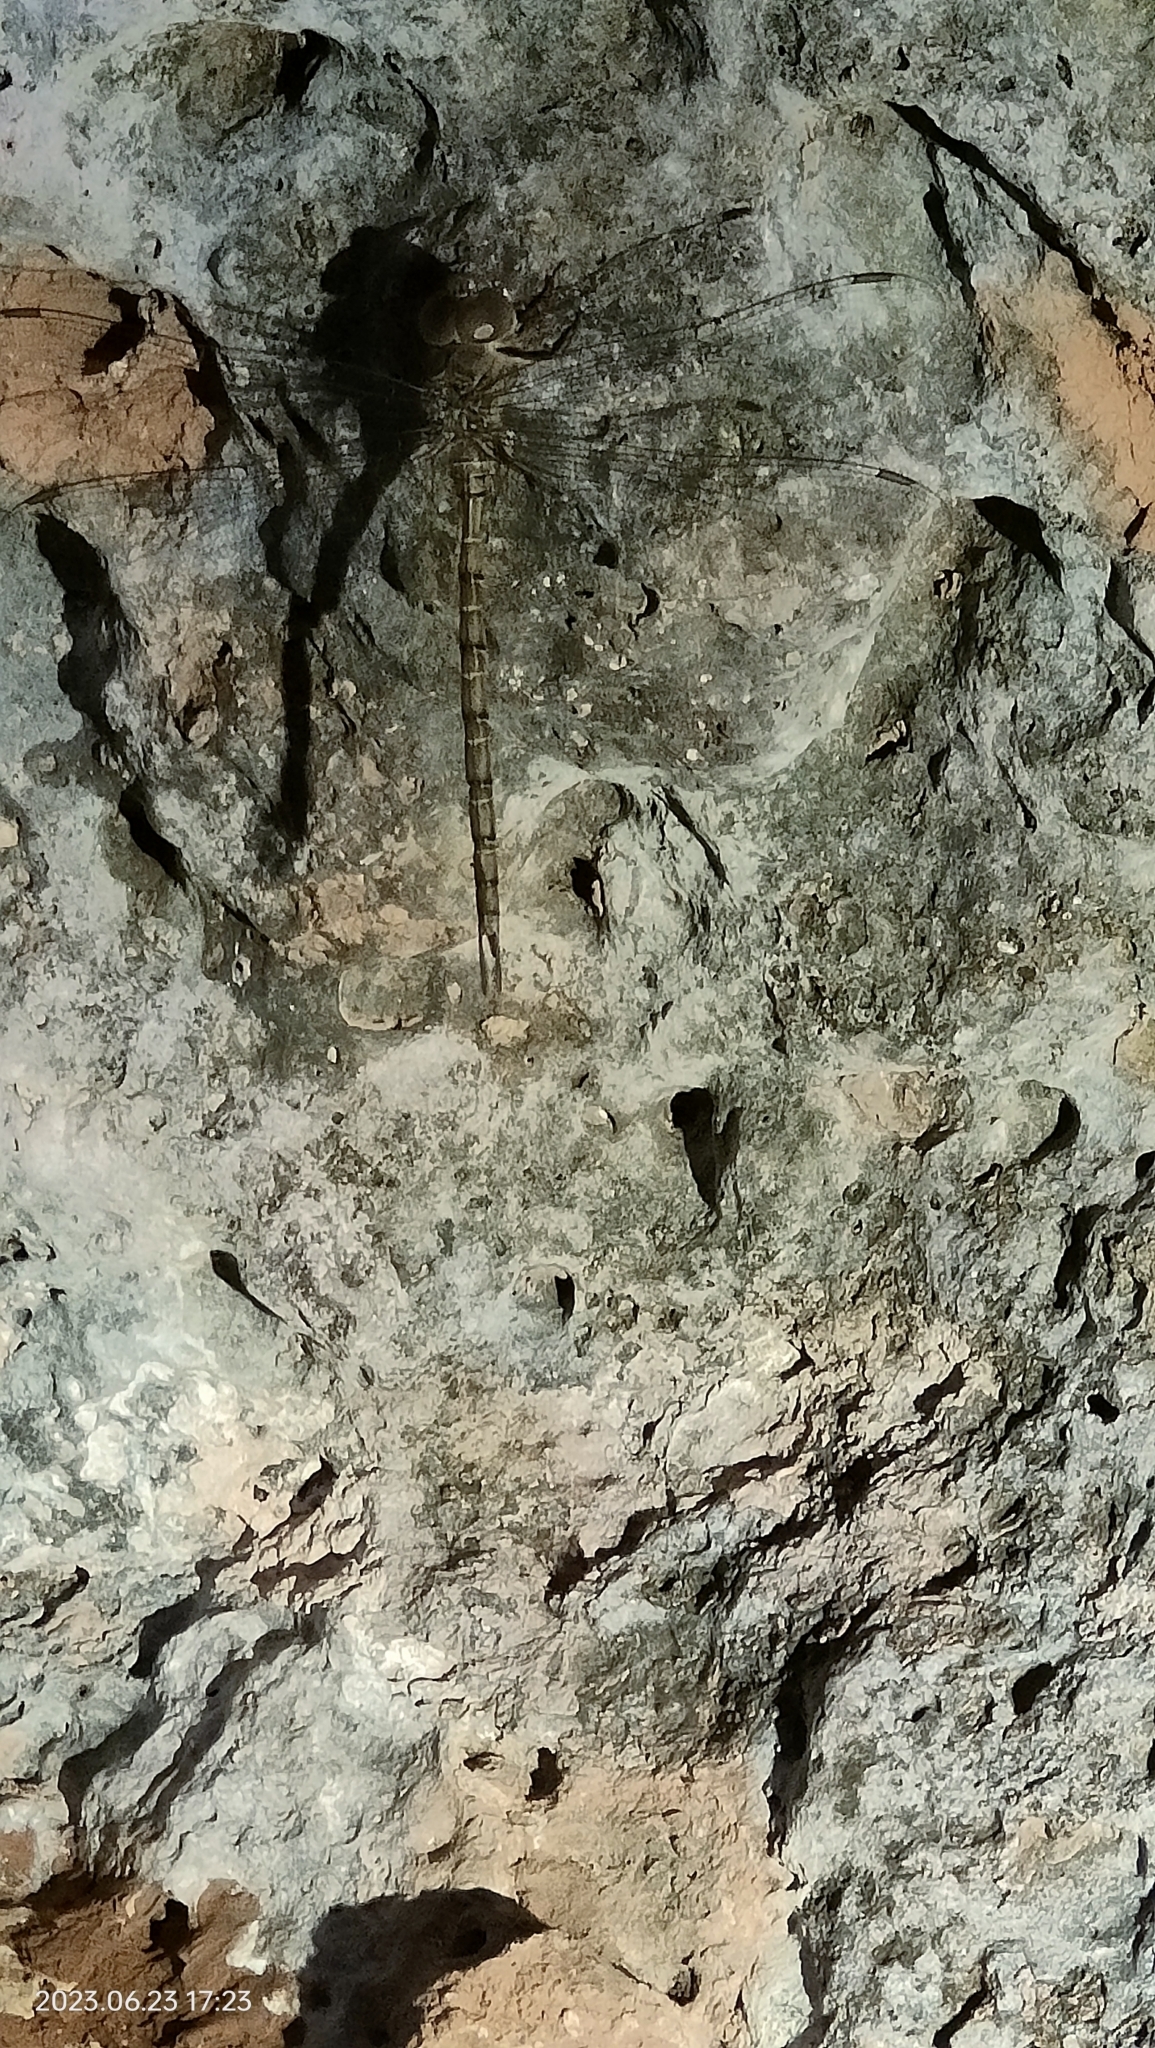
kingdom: Animalia
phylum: Arthropoda
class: Insecta
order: Odonata
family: Aeshnidae
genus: Gynacantha
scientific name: Gynacantha nourlangie
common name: Cave duskhawker
